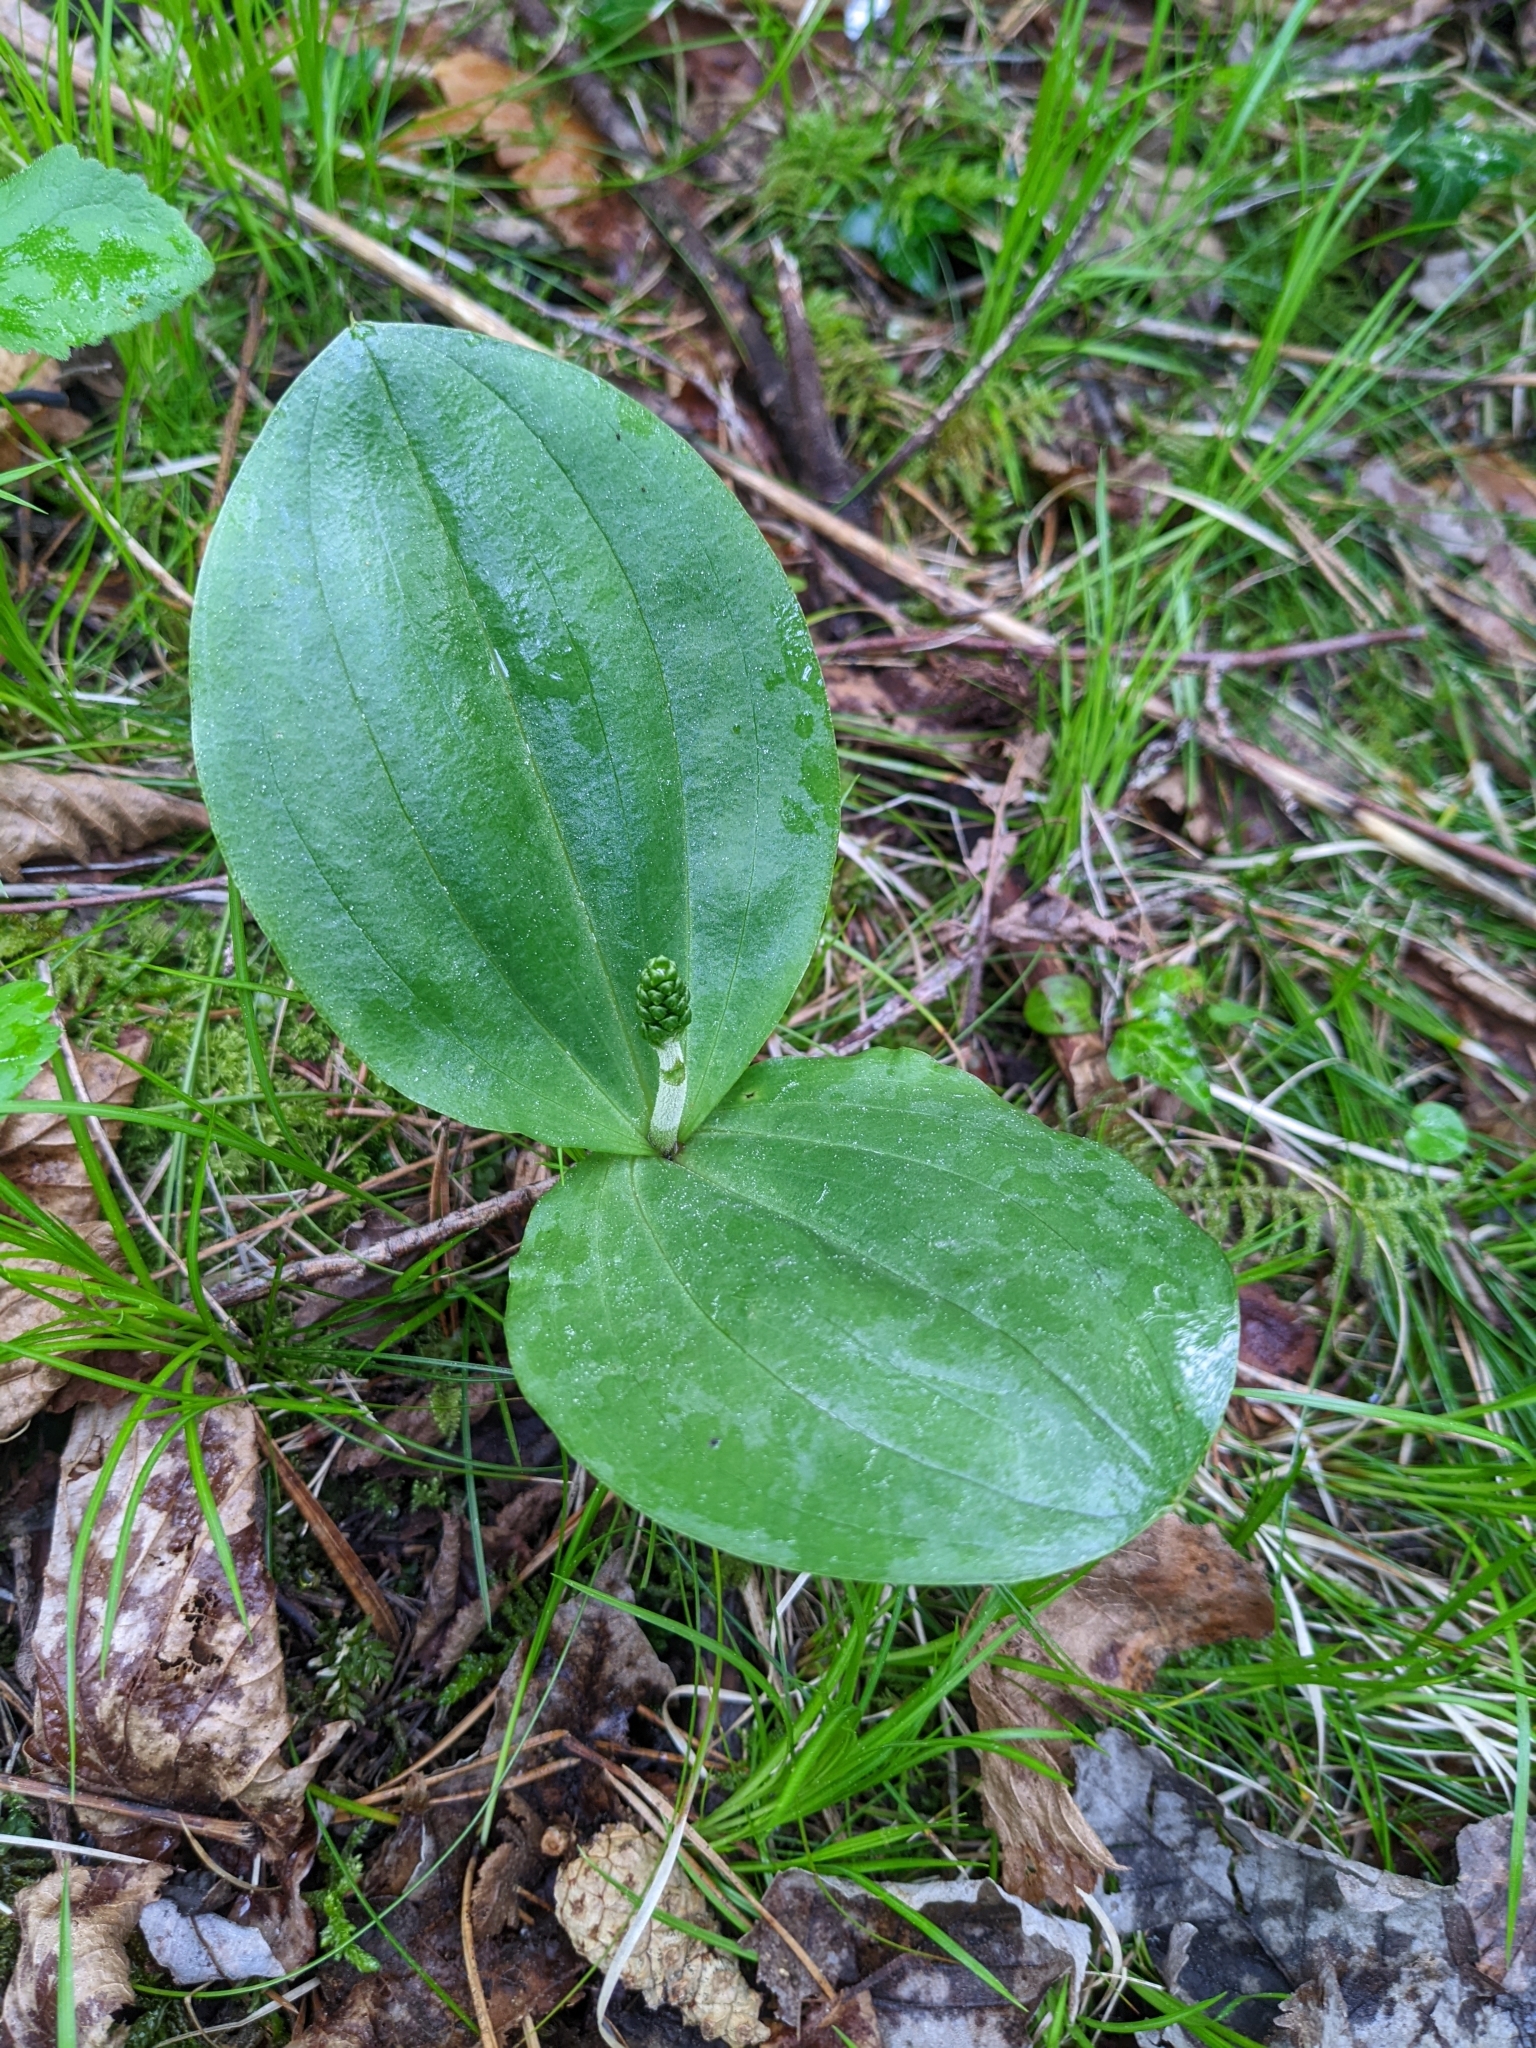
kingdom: Plantae
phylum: Tracheophyta
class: Liliopsida
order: Asparagales
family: Orchidaceae
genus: Neottia
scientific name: Neottia ovata
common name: Common twayblade
